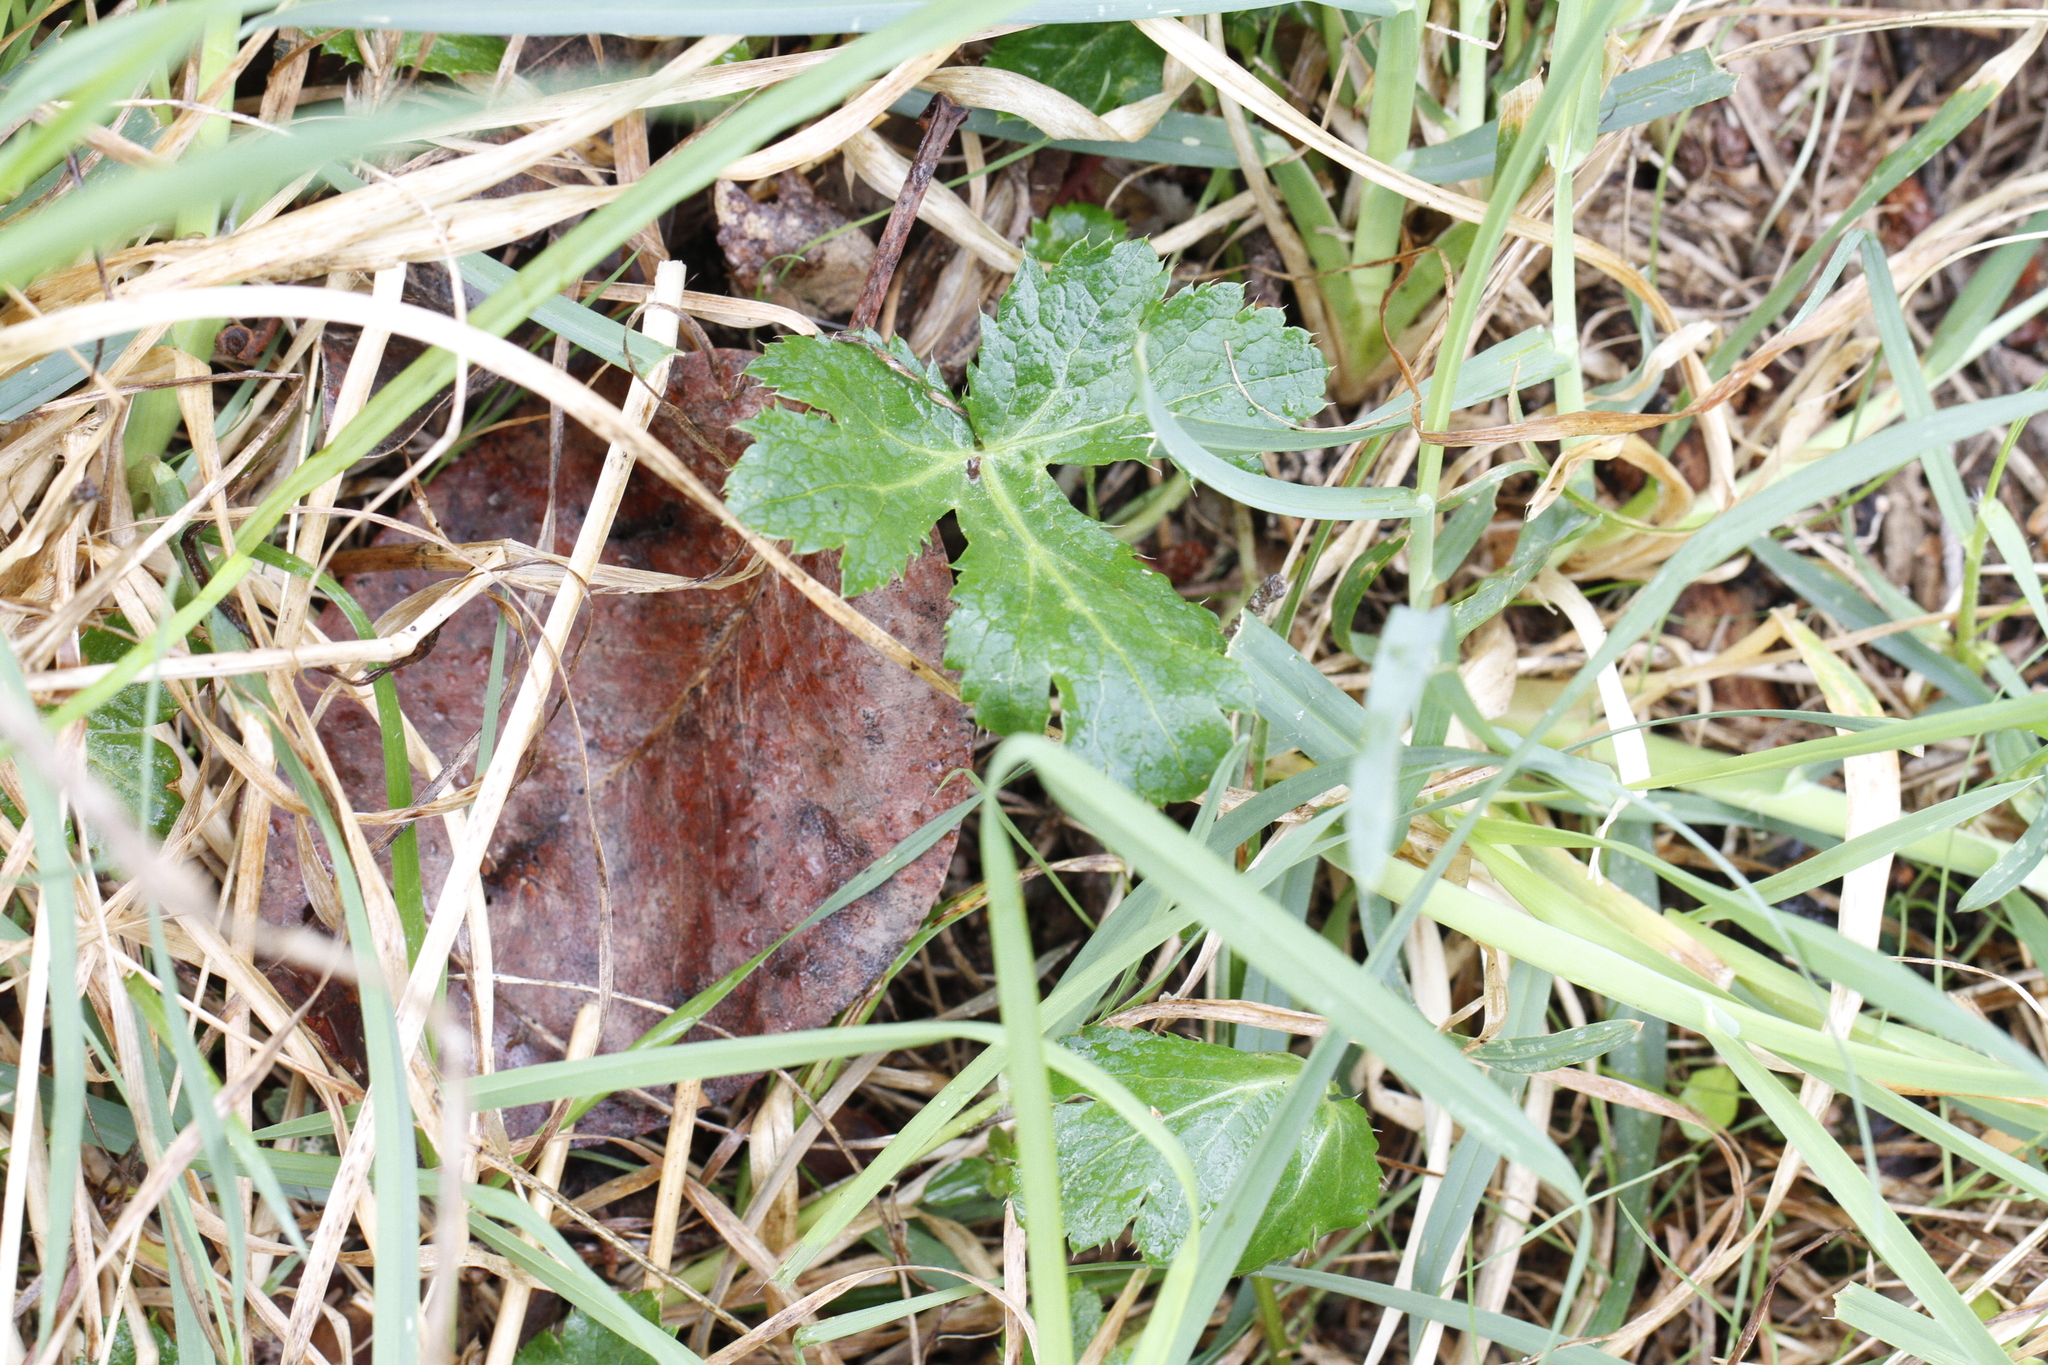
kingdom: Plantae
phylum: Tracheophyta
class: Magnoliopsida
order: Apiales
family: Apiaceae
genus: Sanicula
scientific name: Sanicula crassicaulis
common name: Western snakeroot
